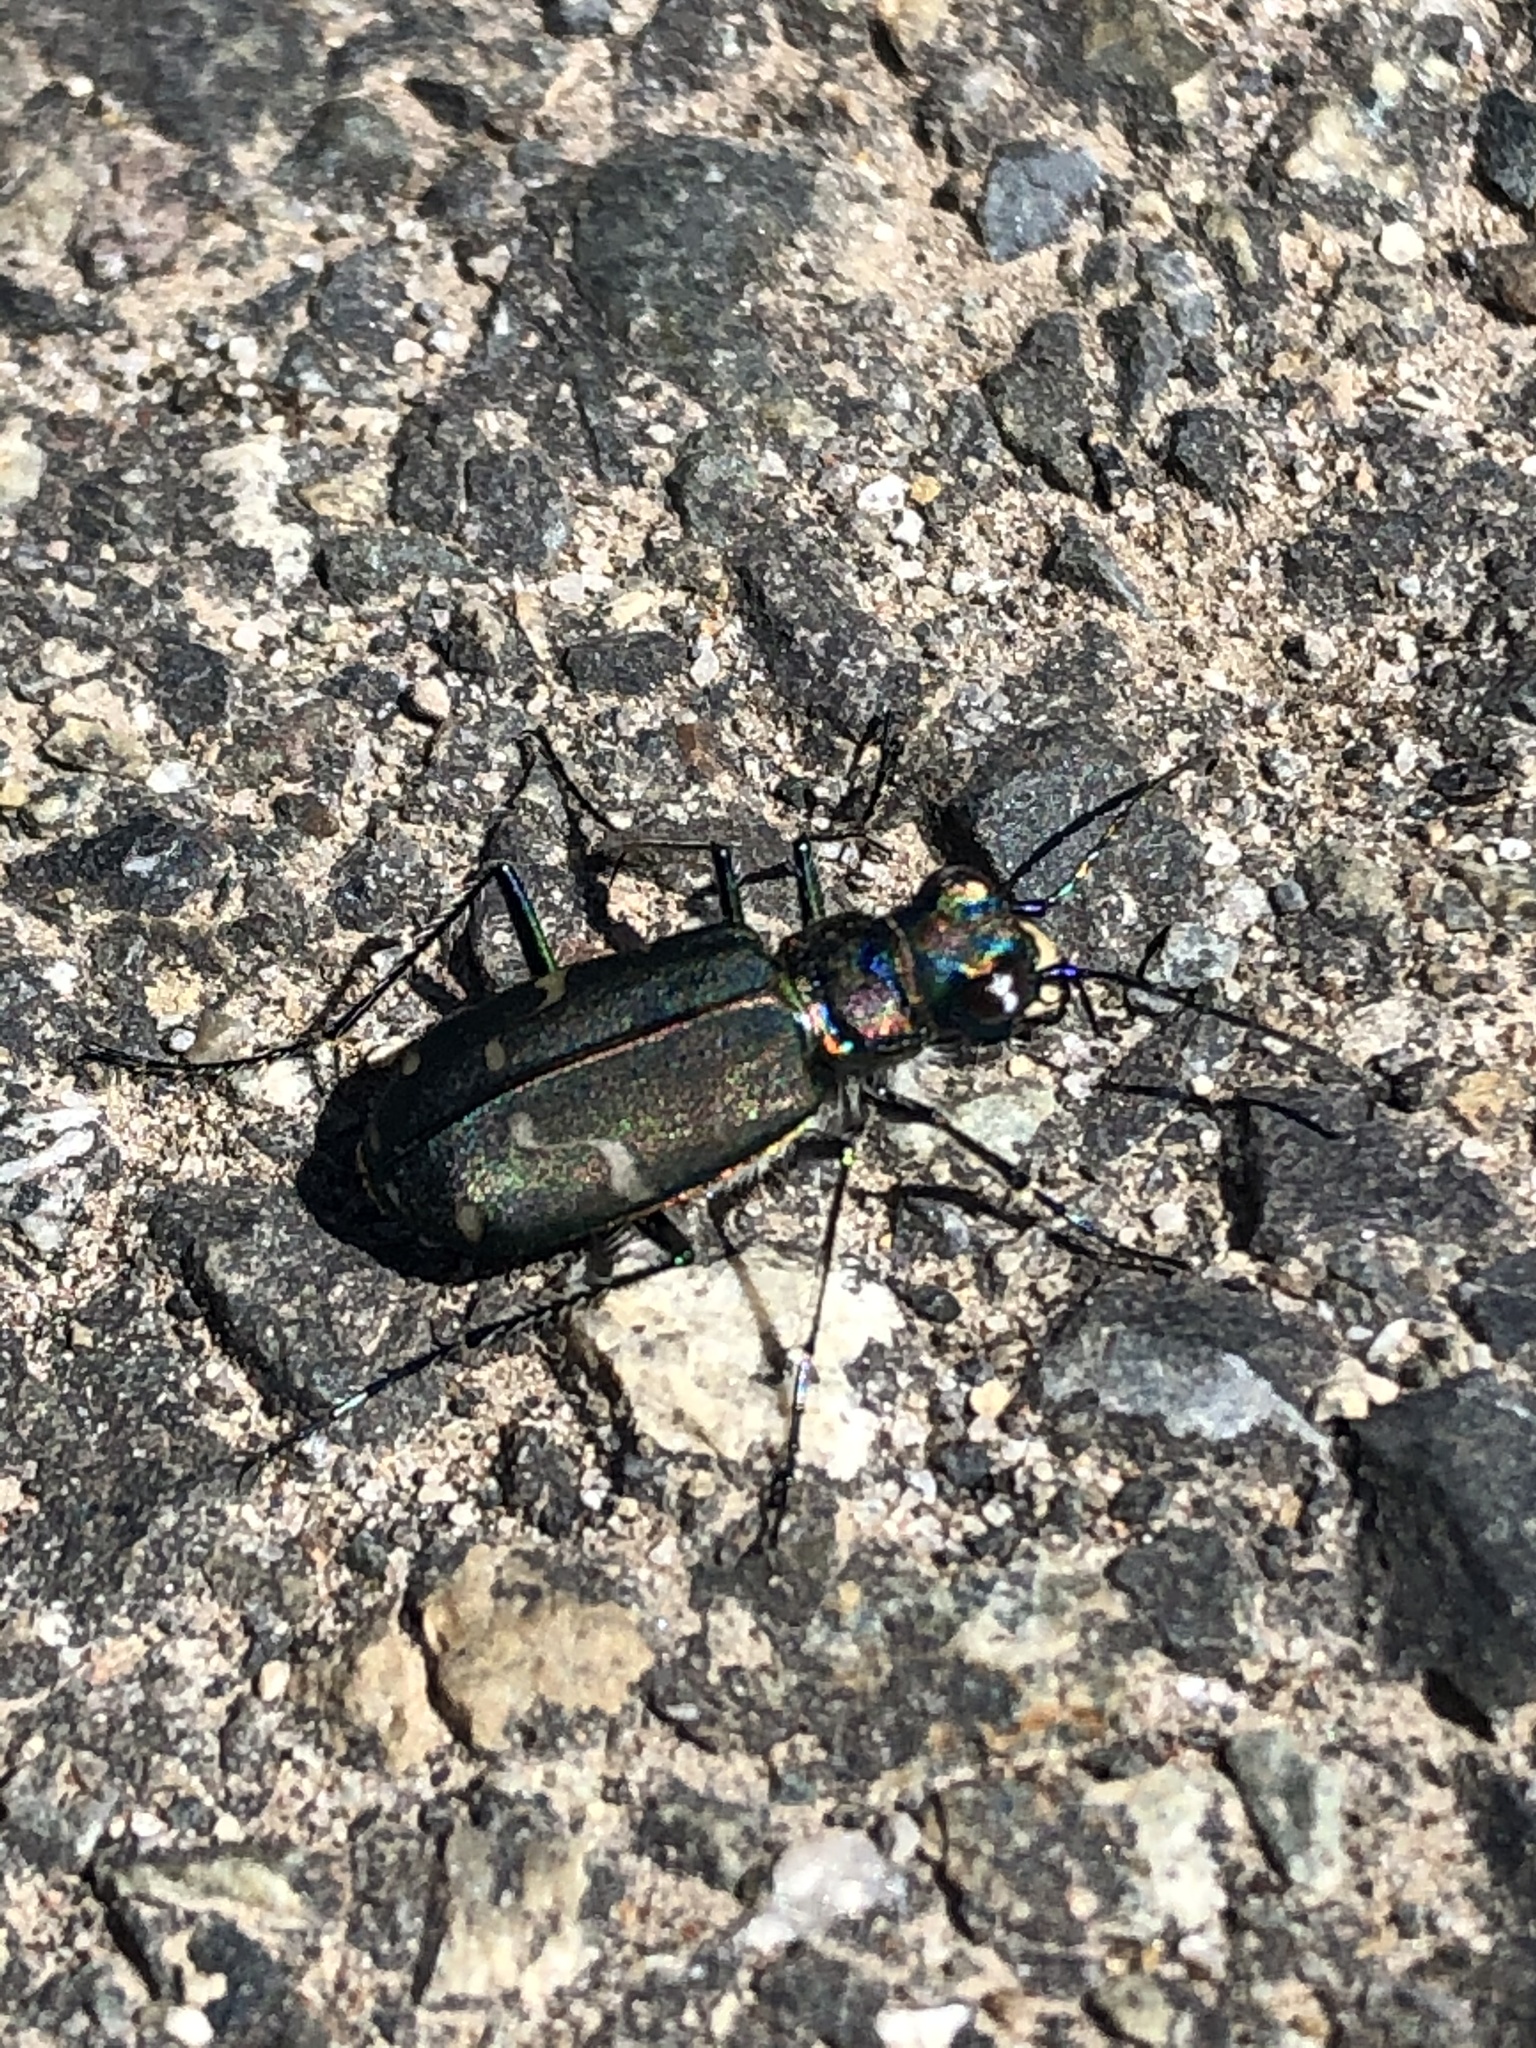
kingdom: Animalia
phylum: Arthropoda
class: Insecta
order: Coleoptera
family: Carabidae
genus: Cicindela
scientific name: Cicindela depressula
